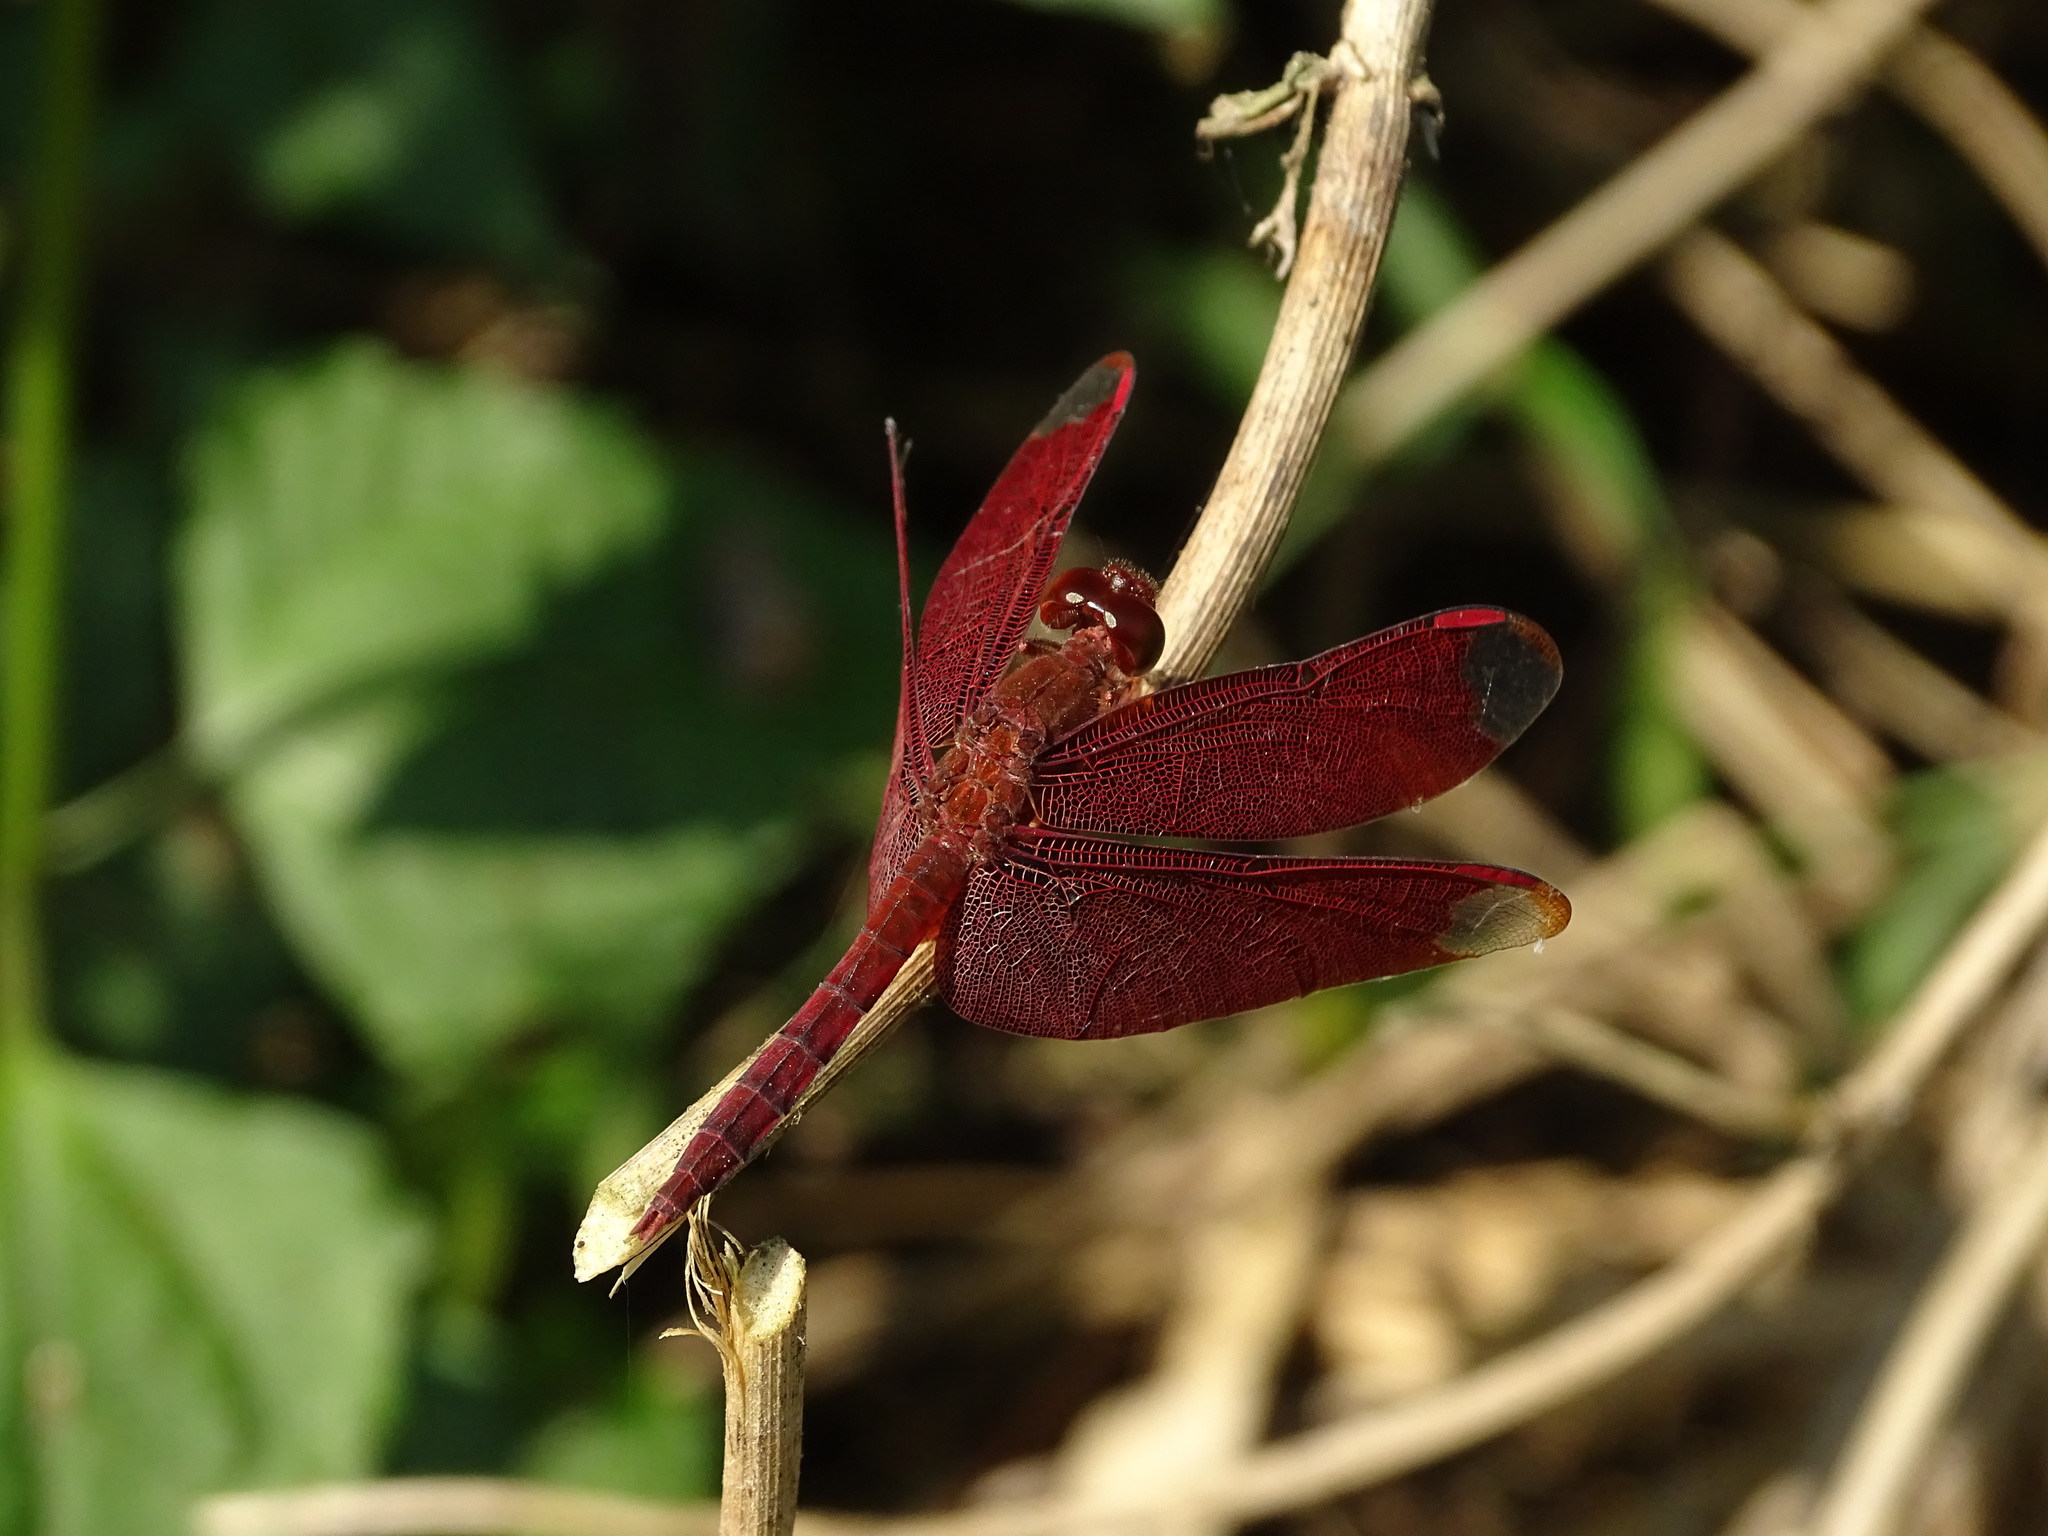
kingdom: Animalia
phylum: Arthropoda
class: Insecta
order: Odonata
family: Libellulidae
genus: Neurothemis
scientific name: Neurothemis fulvia
